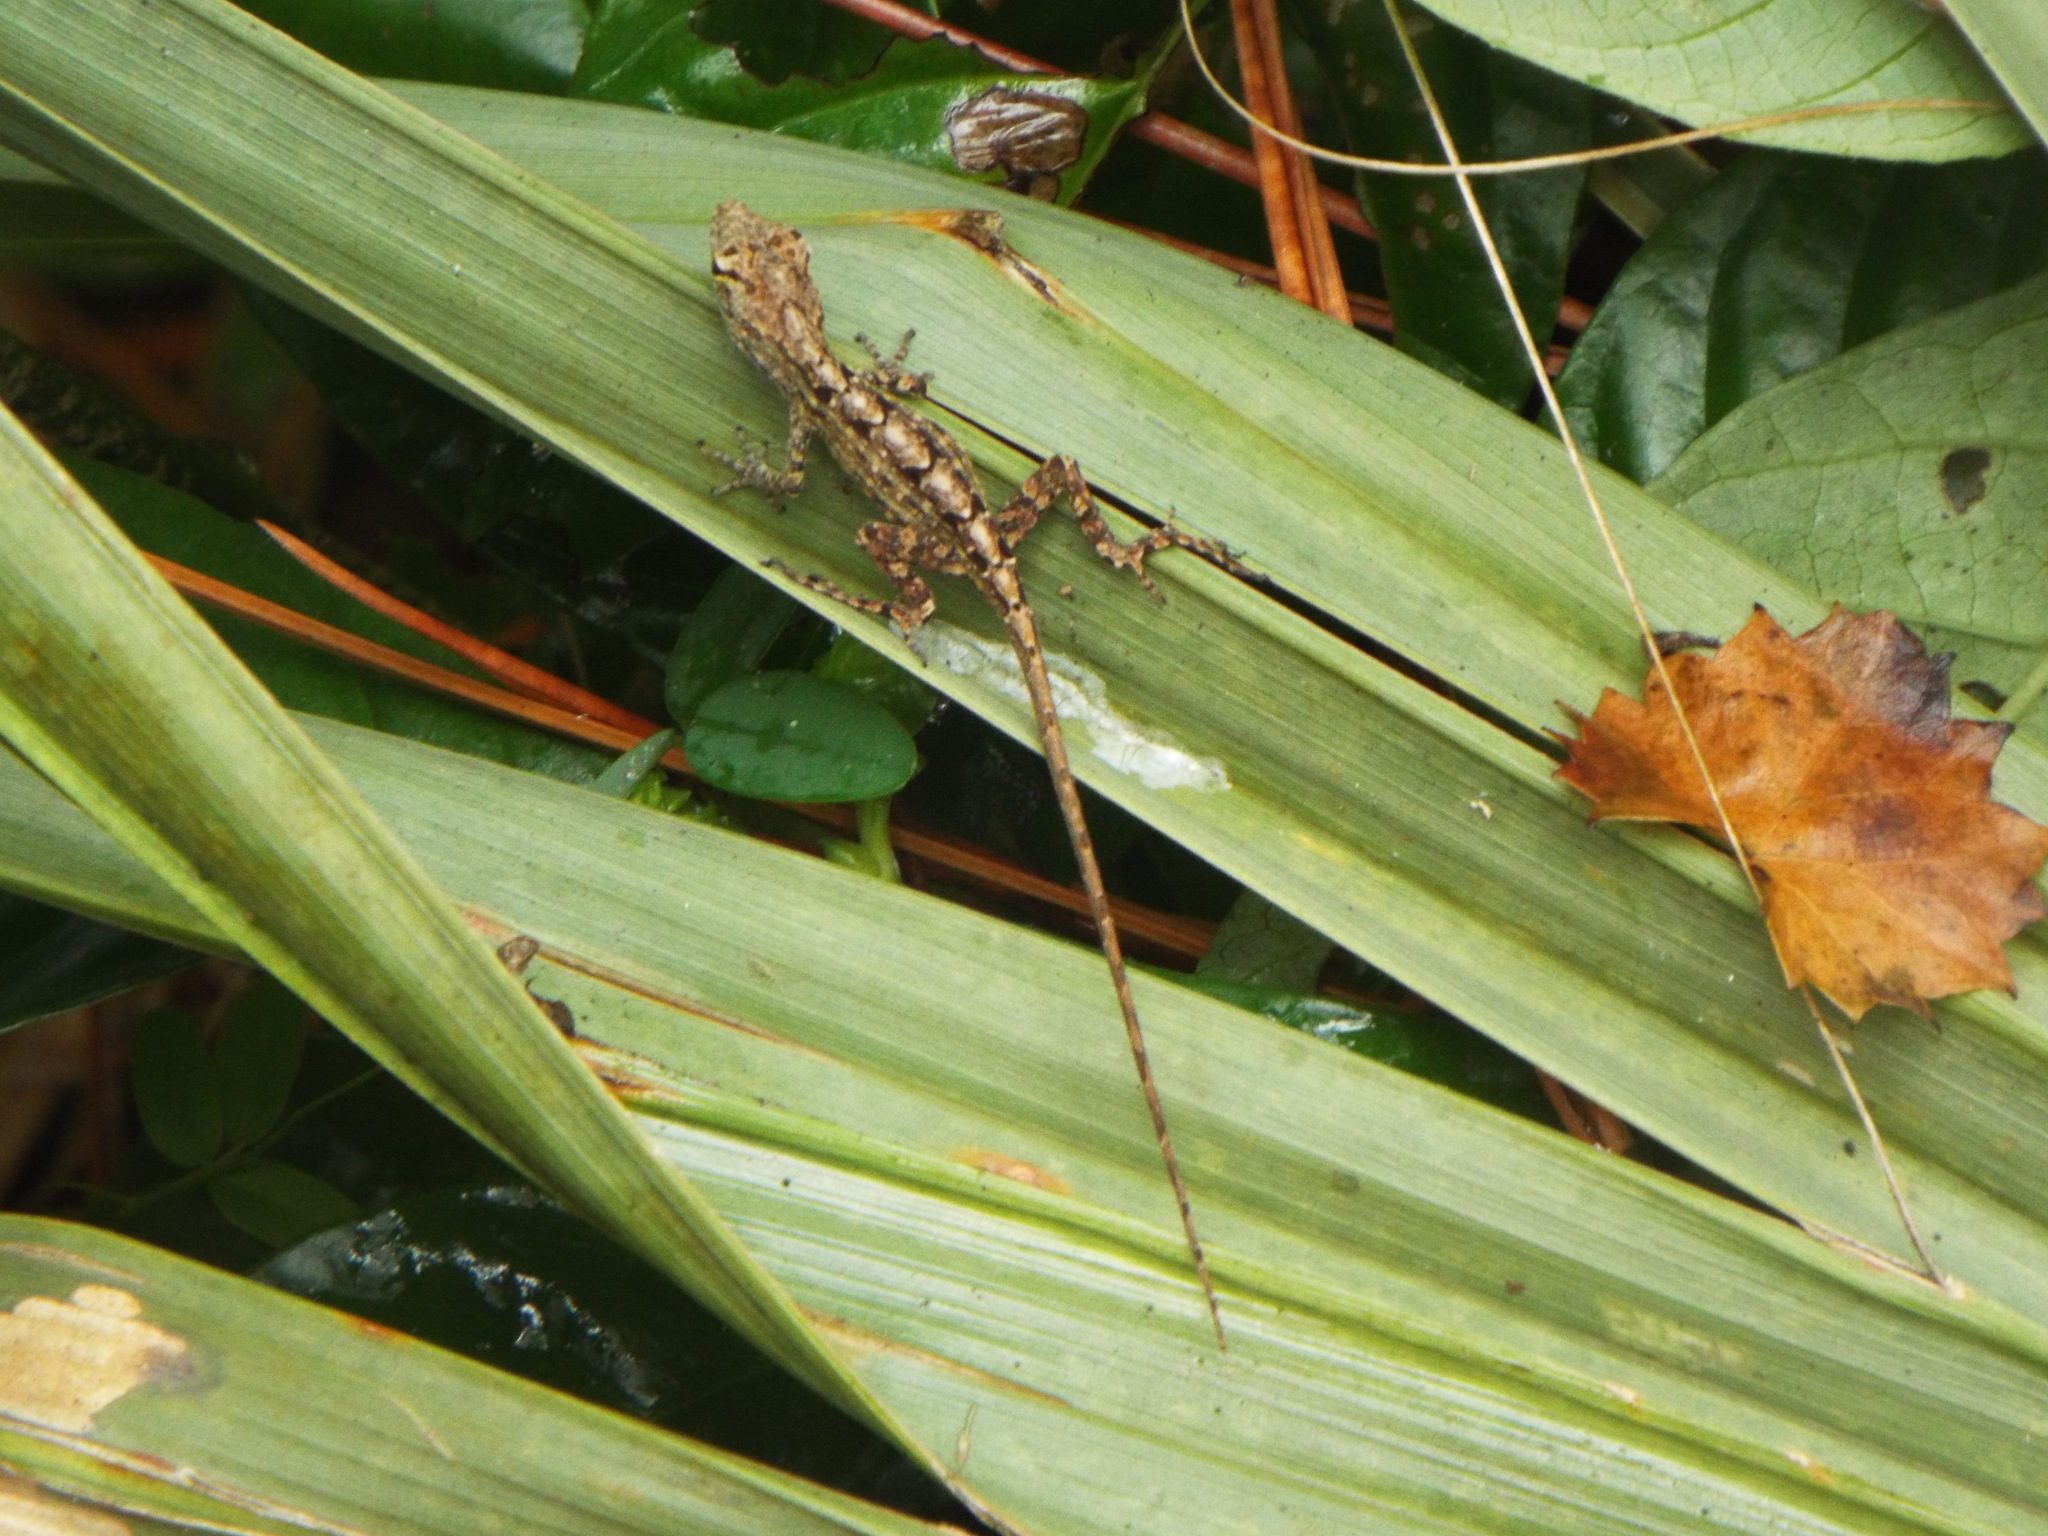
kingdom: Animalia
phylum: Chordata
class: Squamata
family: Dactyloidae
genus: Anolis
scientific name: Anolis sagrei
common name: Brown anole
